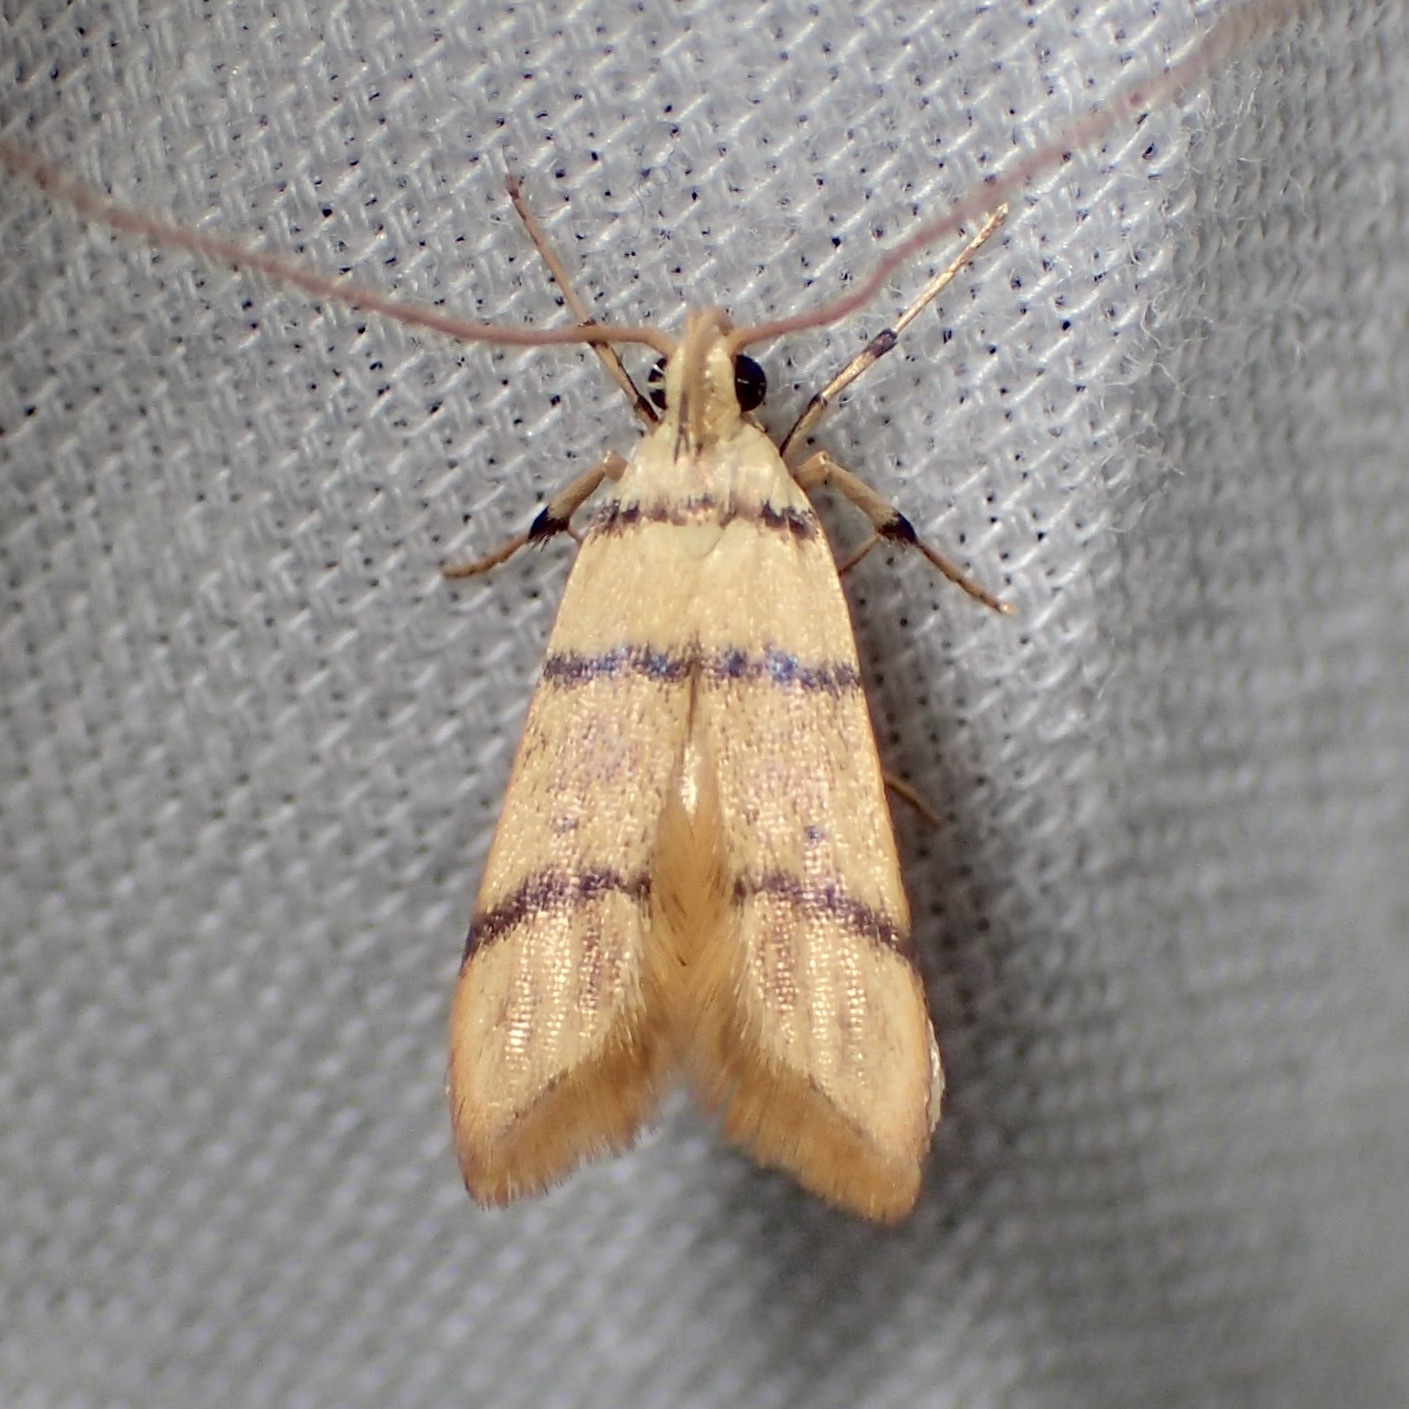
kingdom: Animalia
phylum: Arthropoda
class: Insecta
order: Lepidoptera
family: Lecithoceridae
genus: Crocanthes
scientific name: Crocanthes chordotona
